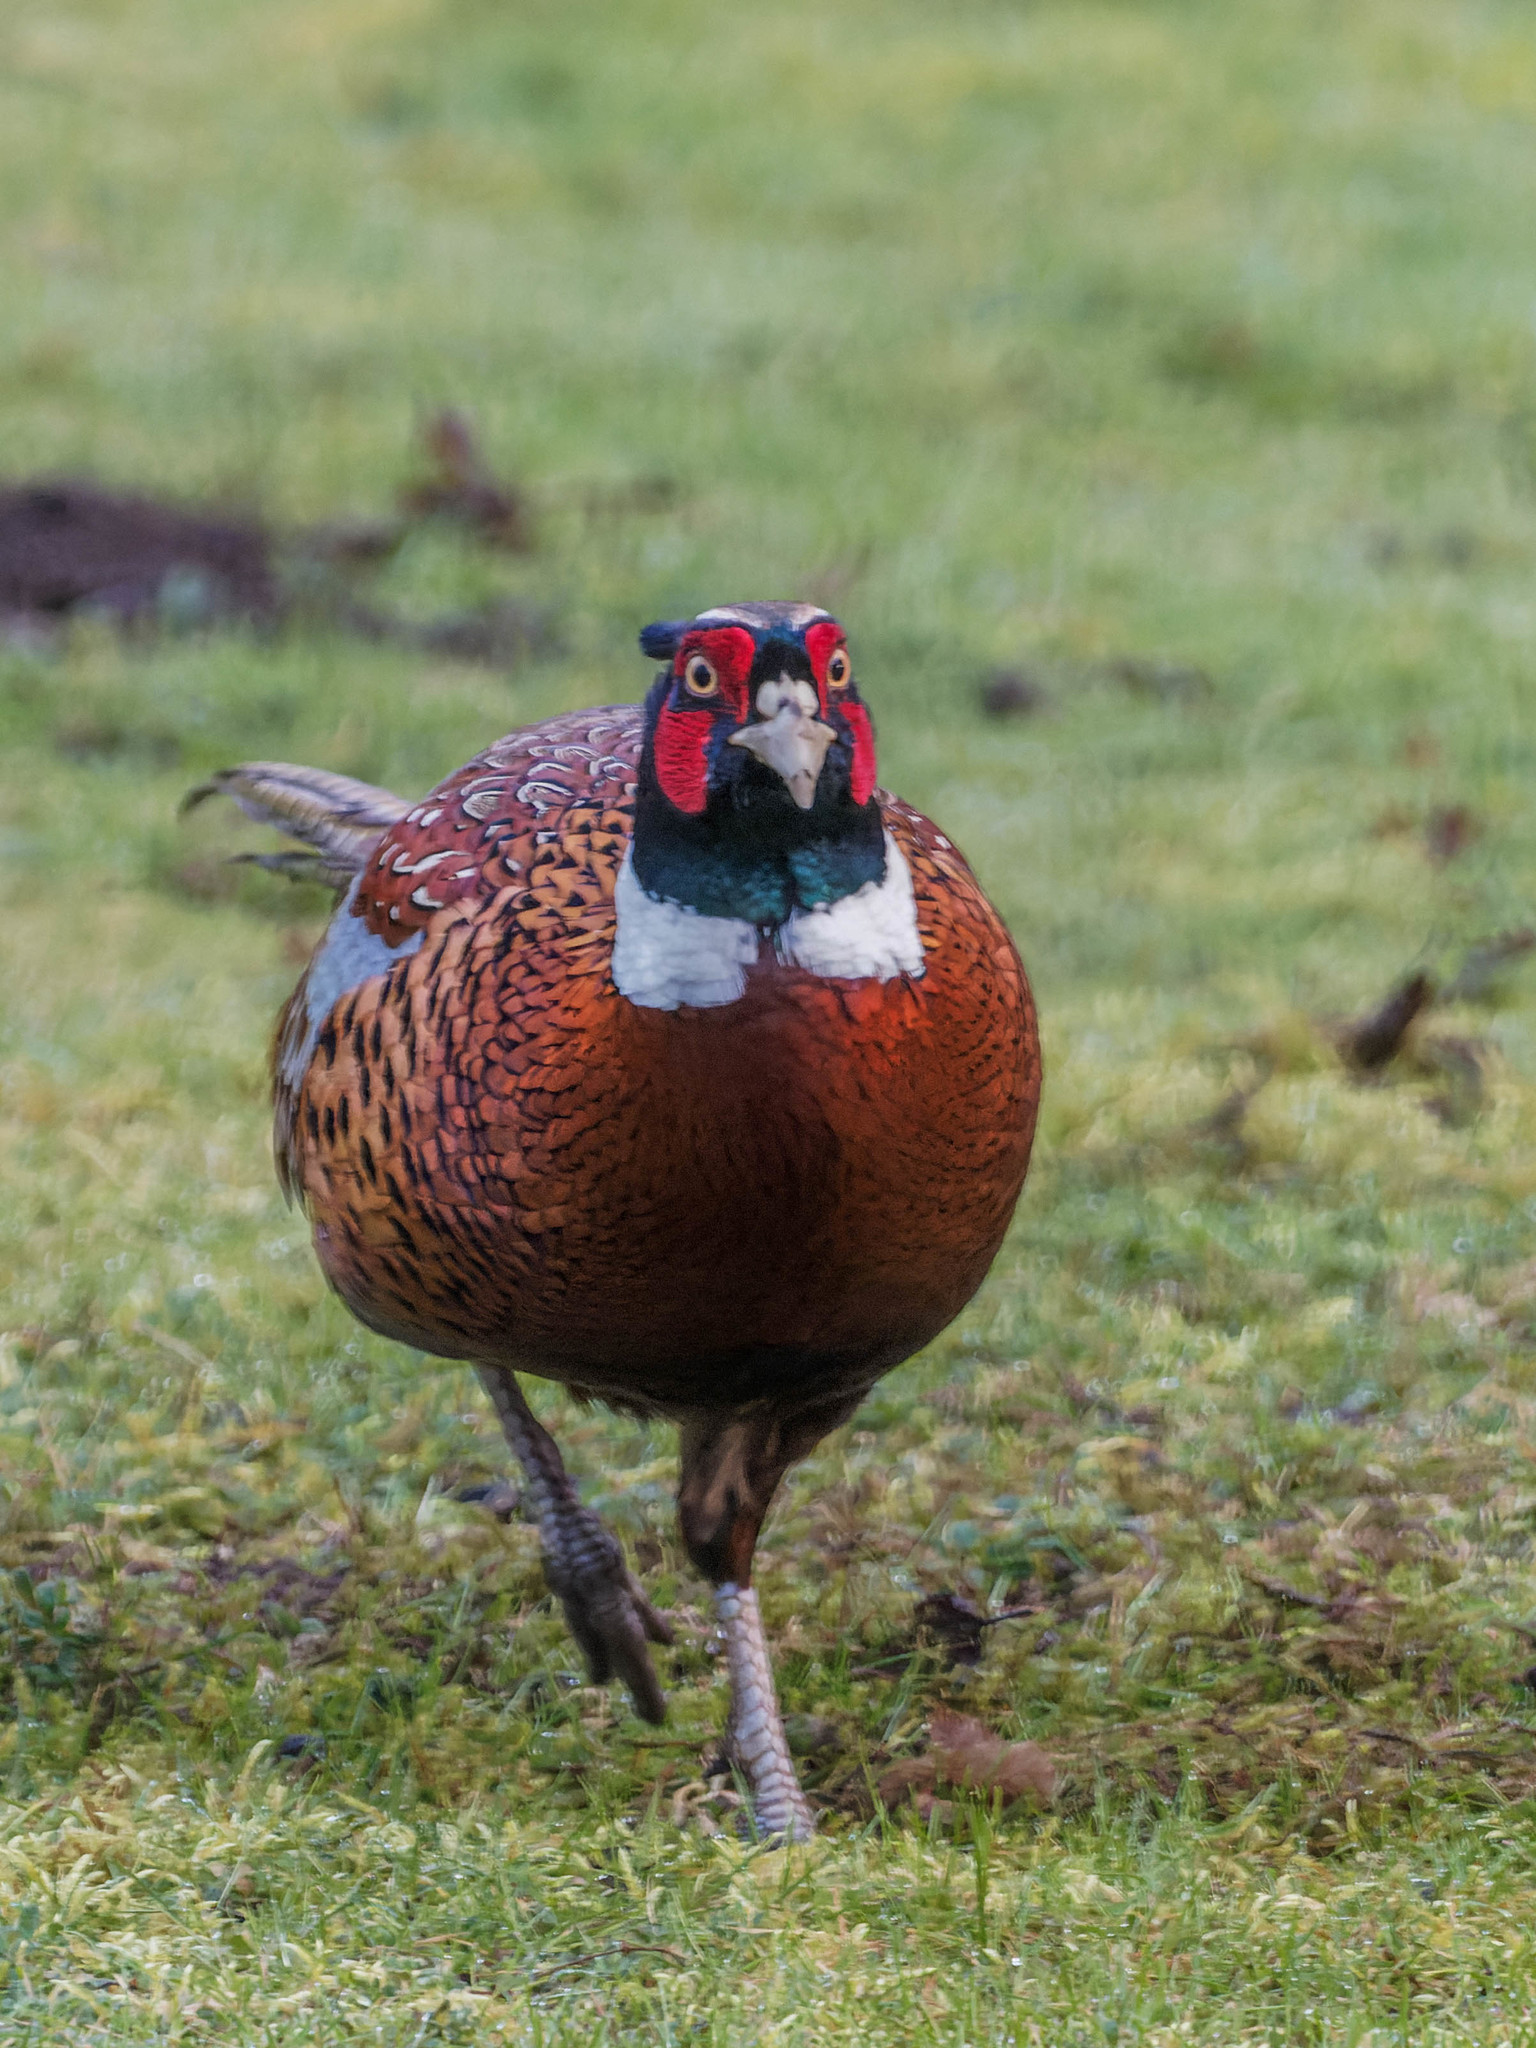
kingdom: Animalia
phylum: Chordata
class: Aves
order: Galliformes
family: Phasianidae
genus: Phasianus
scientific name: Phasianus colchicus
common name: Common pheasant
